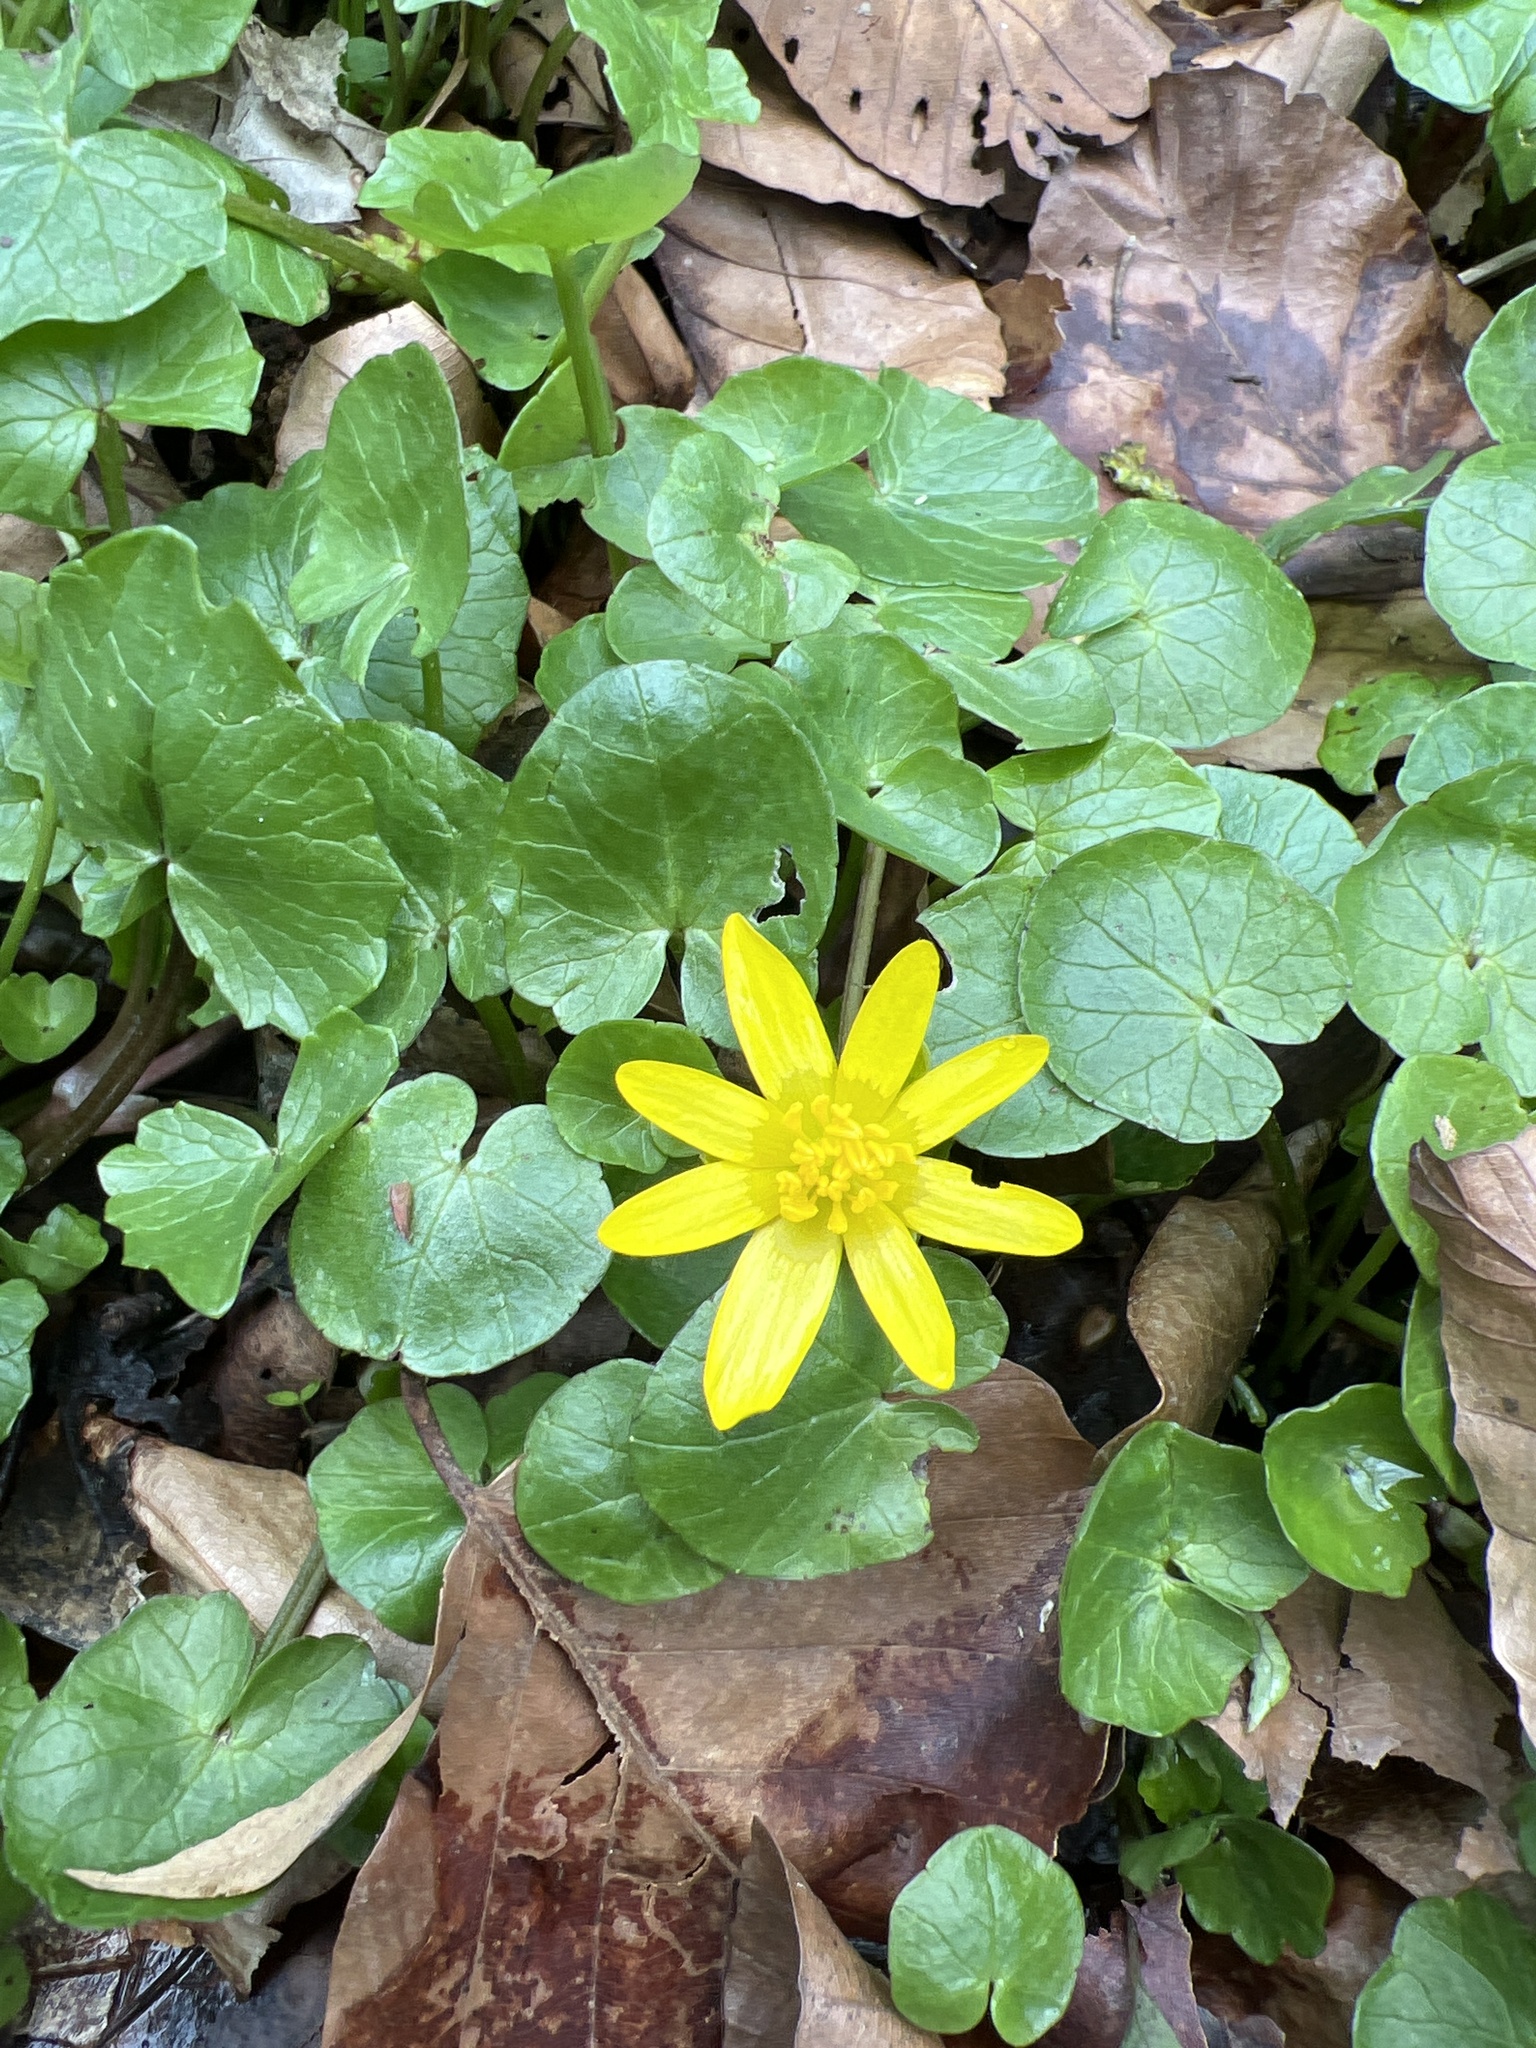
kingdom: Plantae
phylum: Tracheophyta
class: Magnoliopsida
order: Ranunculales
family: Ranunculaceae
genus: Ficaria
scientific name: Ficaria verna
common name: Lesser celandine
